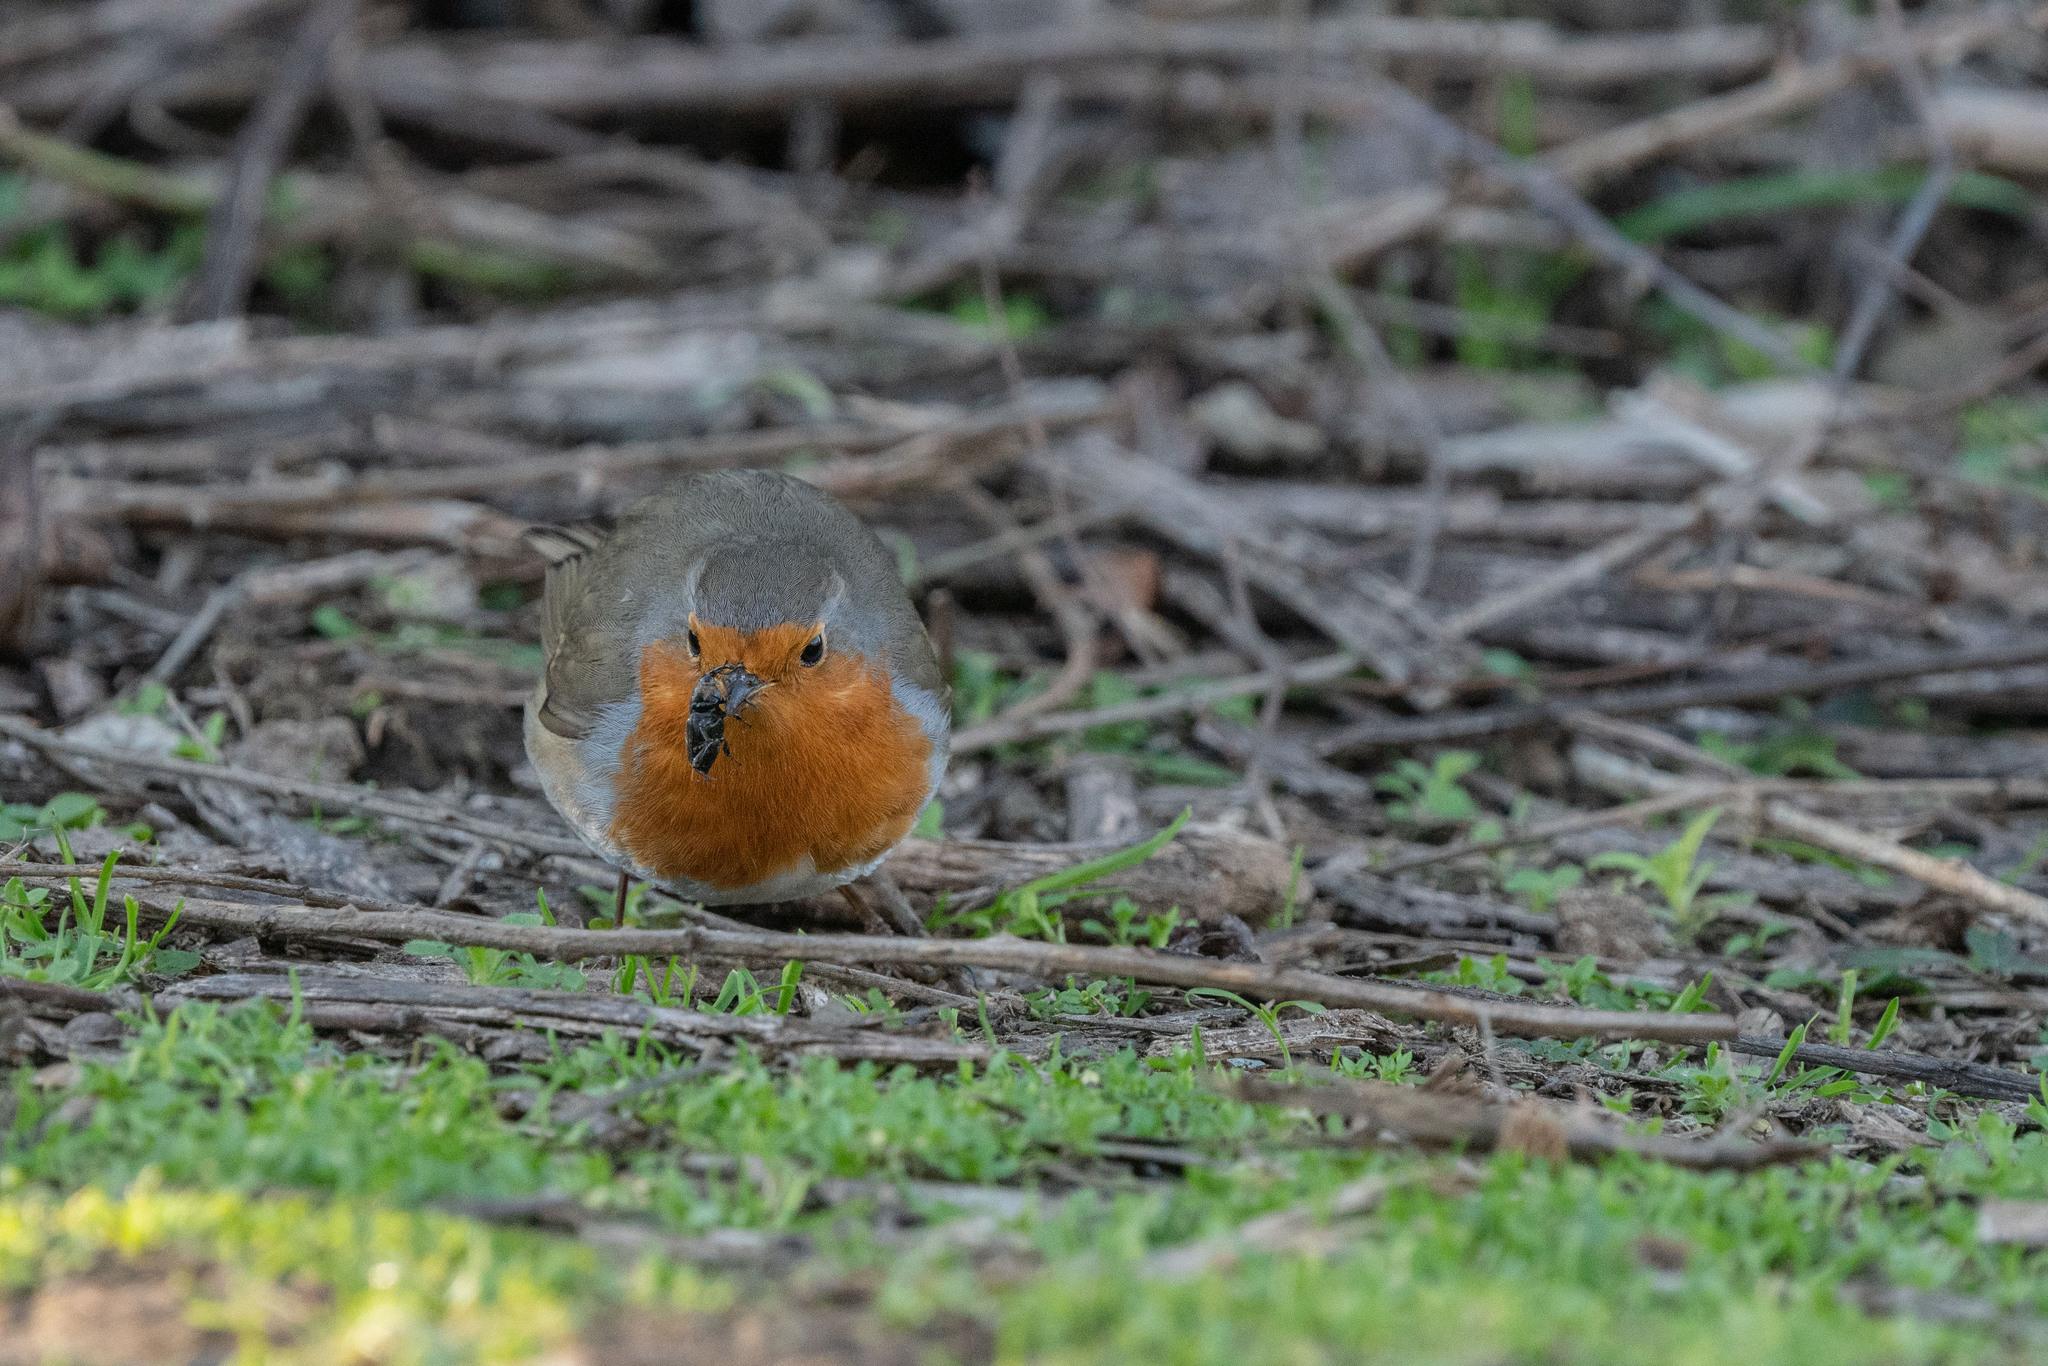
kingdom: Animalia
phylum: Chordata
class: Aves
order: Passeriformes
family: Muscicapidae
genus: Erithacus
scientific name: Erithacus rubecula
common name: European robin
